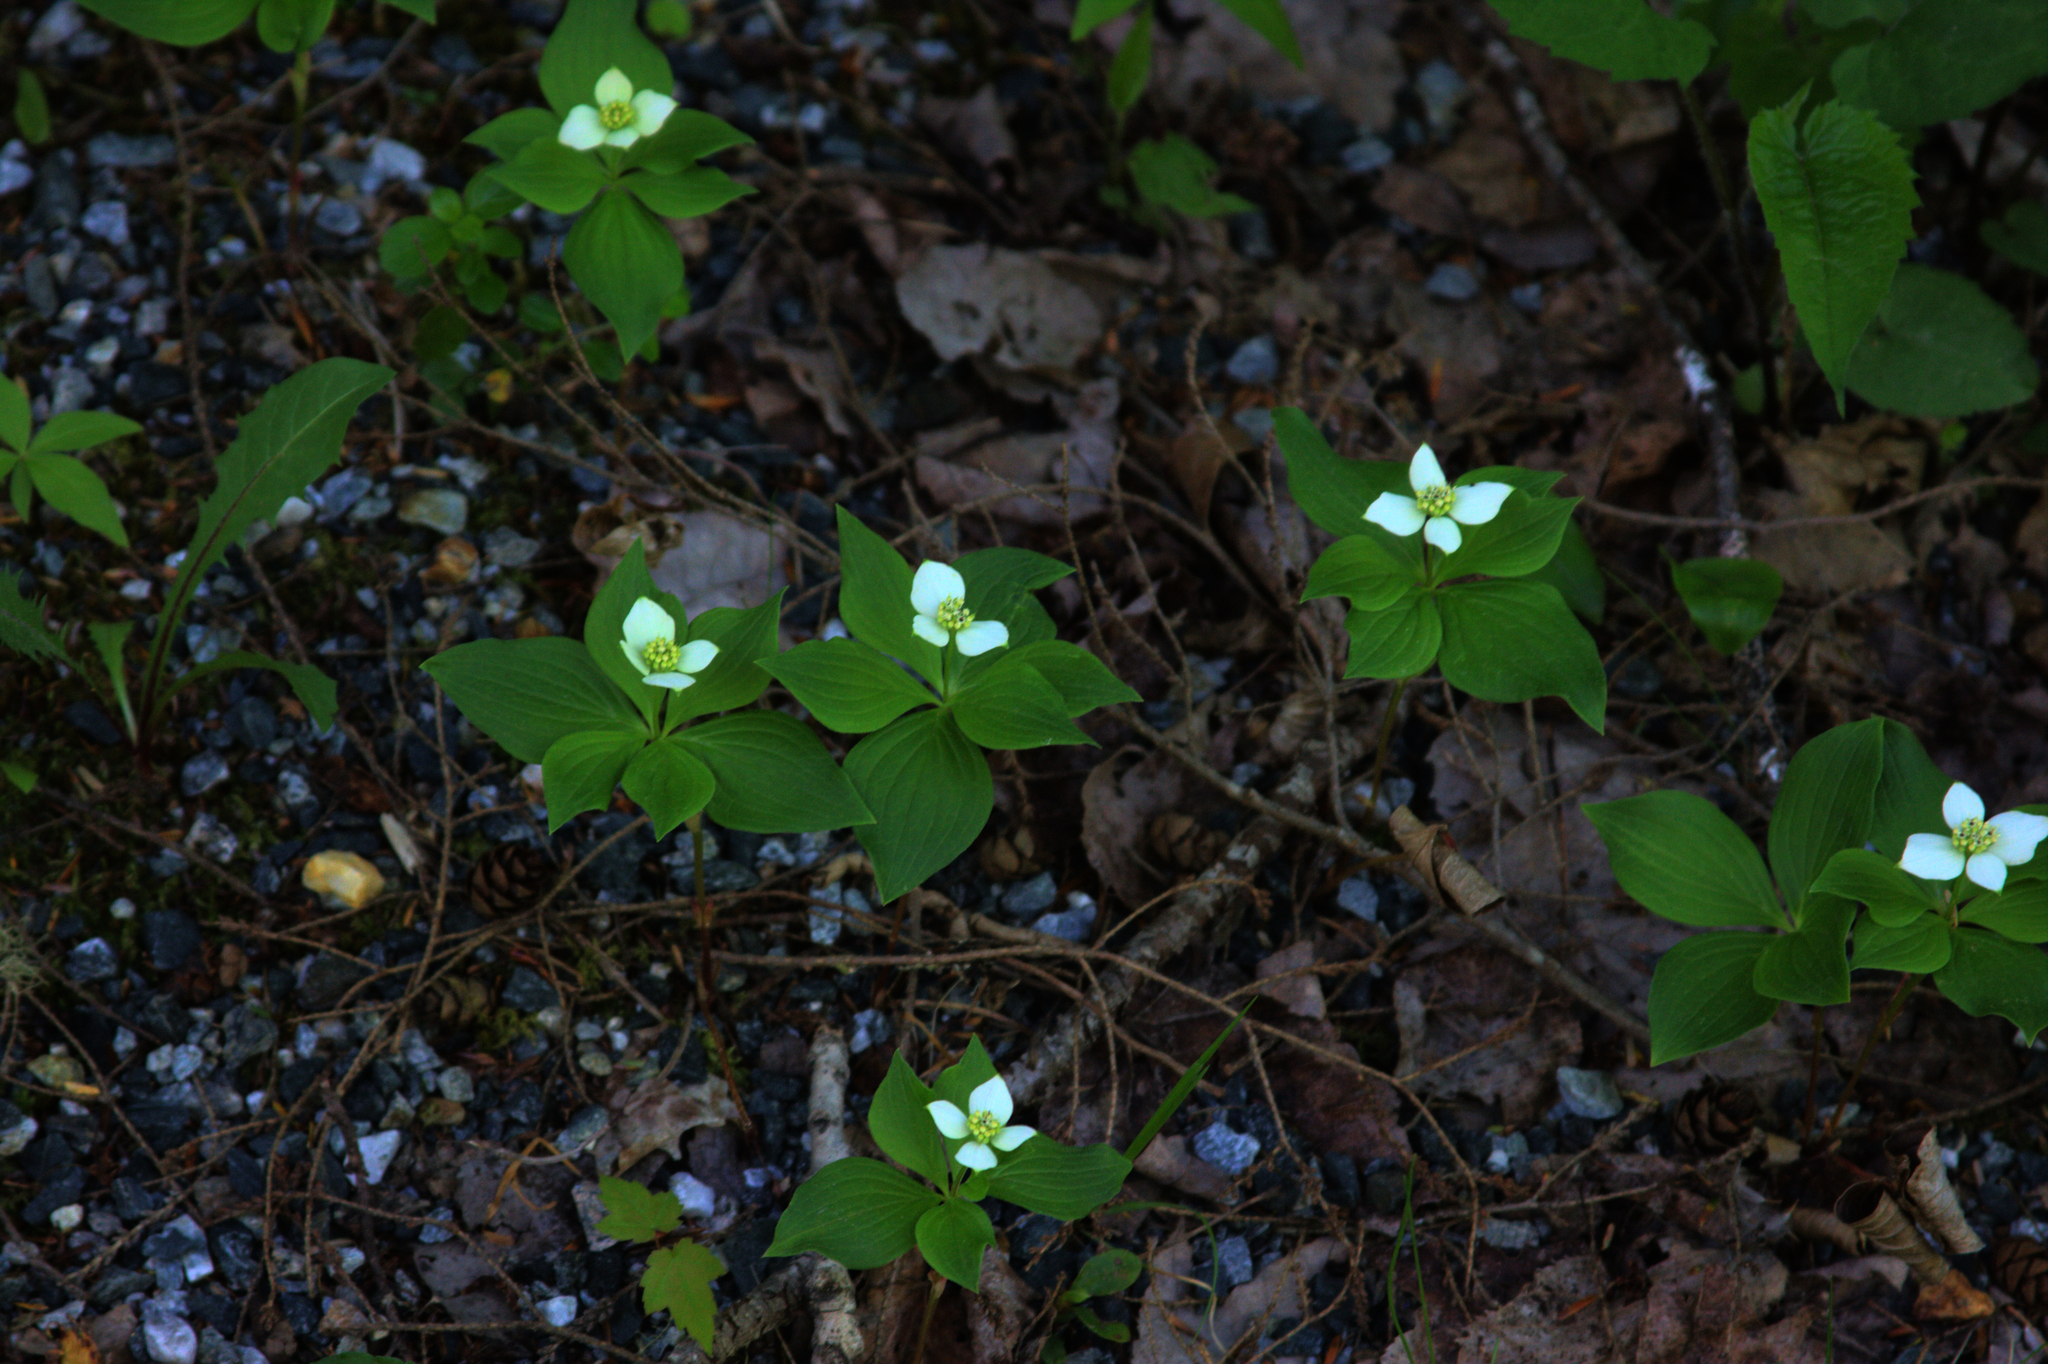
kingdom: Plantae
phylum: Tracheophyta
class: Magnoliopsida
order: Cornales
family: Cornaceae
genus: Cornus
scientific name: Cornus canadensis
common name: Creeping dogwood
